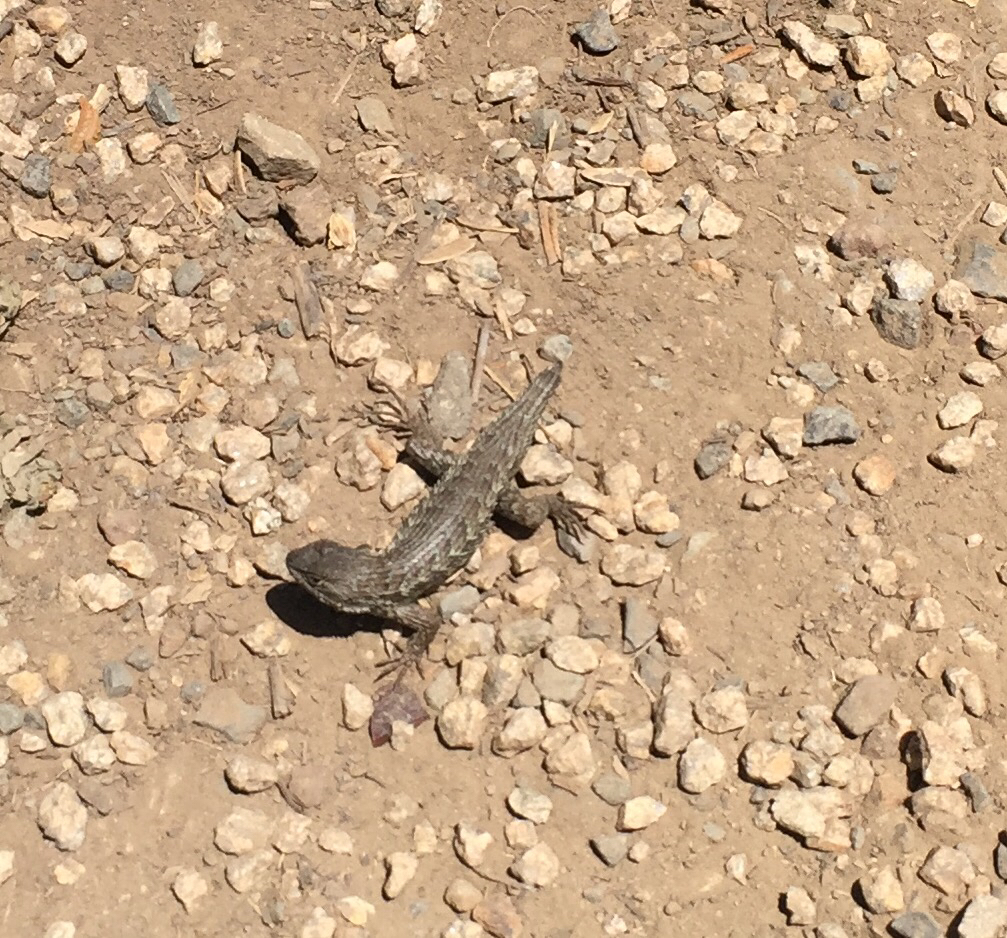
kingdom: Animalia
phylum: Chordata
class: Squamata
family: Phrynosomatidae
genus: Sceloporus
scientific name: Sceloporus occidentalis
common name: Western fence lizard
